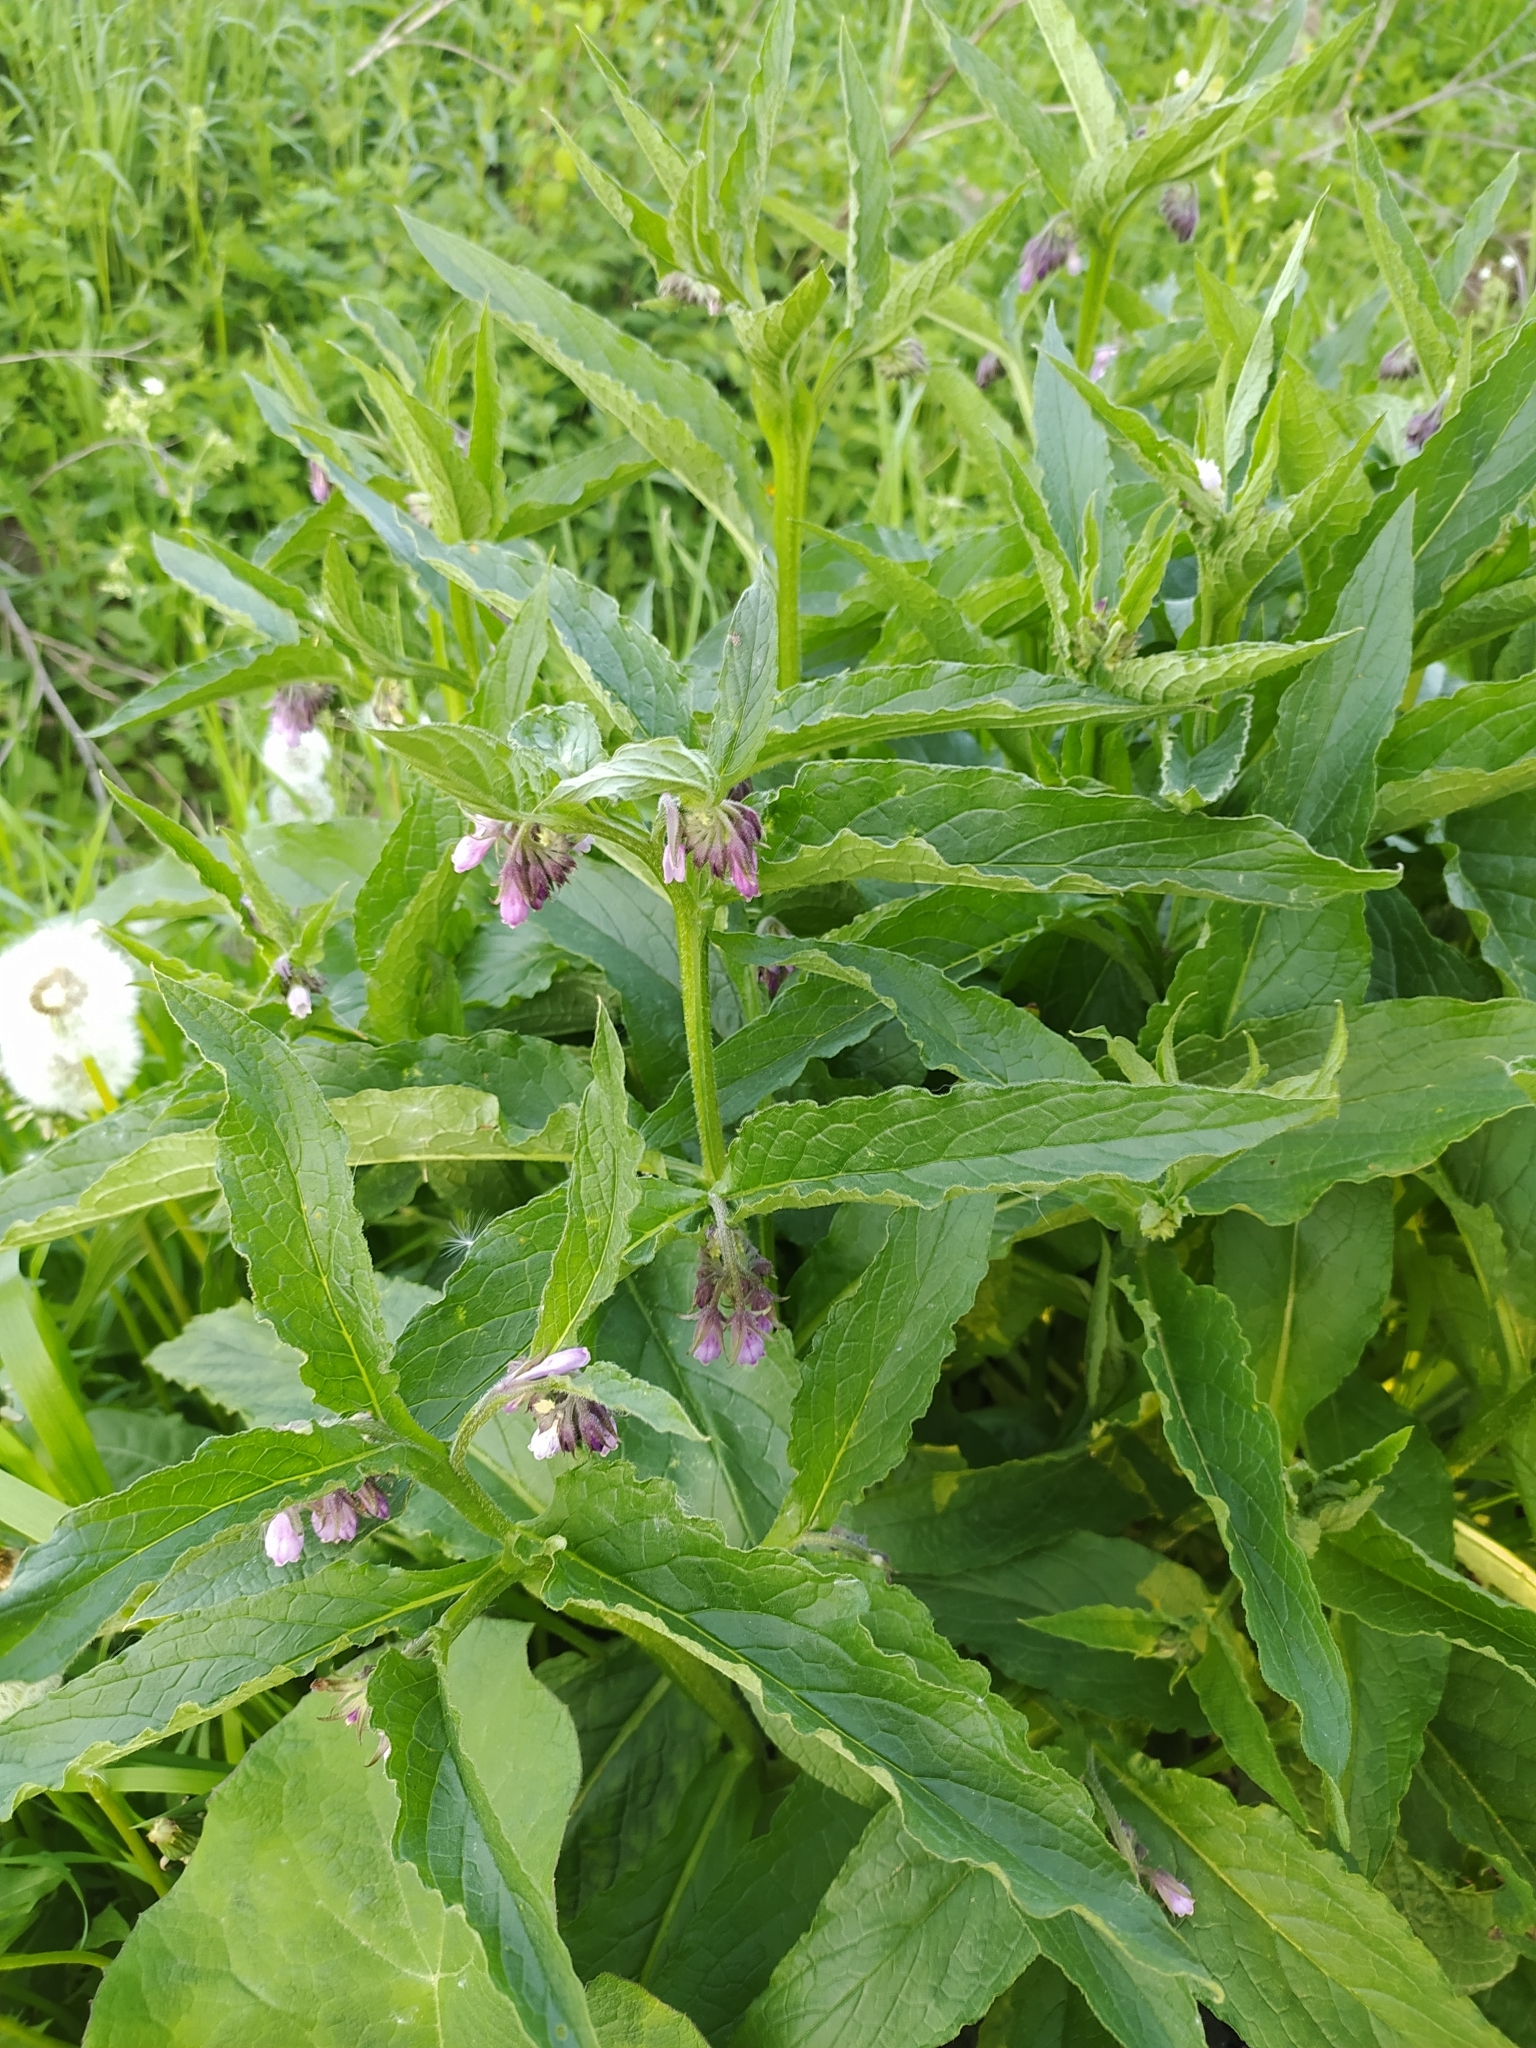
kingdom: Plantae
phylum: Tracheophyta
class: Magnoliopsida
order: Boraginales
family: Boraginaceae
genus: Symphytum
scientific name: Symphytum officinale
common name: Common comfrey
